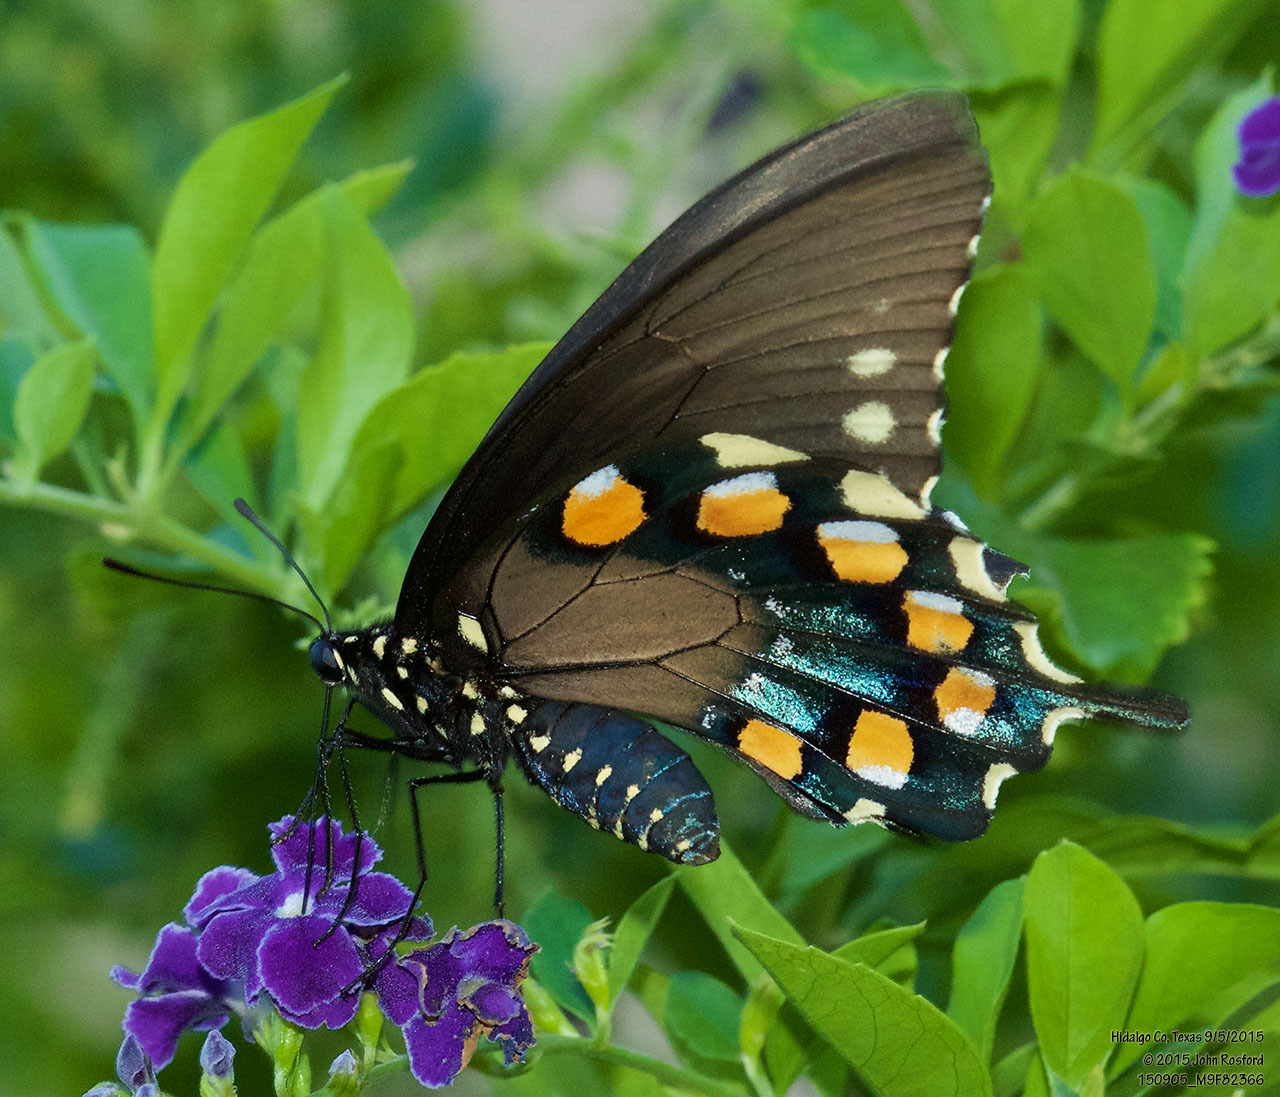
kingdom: Animalia
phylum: Arthropoda
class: Insecta
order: Lepidoptera
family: Papilionidae
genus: Battus
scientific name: Battus philenor
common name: Pipevine swallowtail
